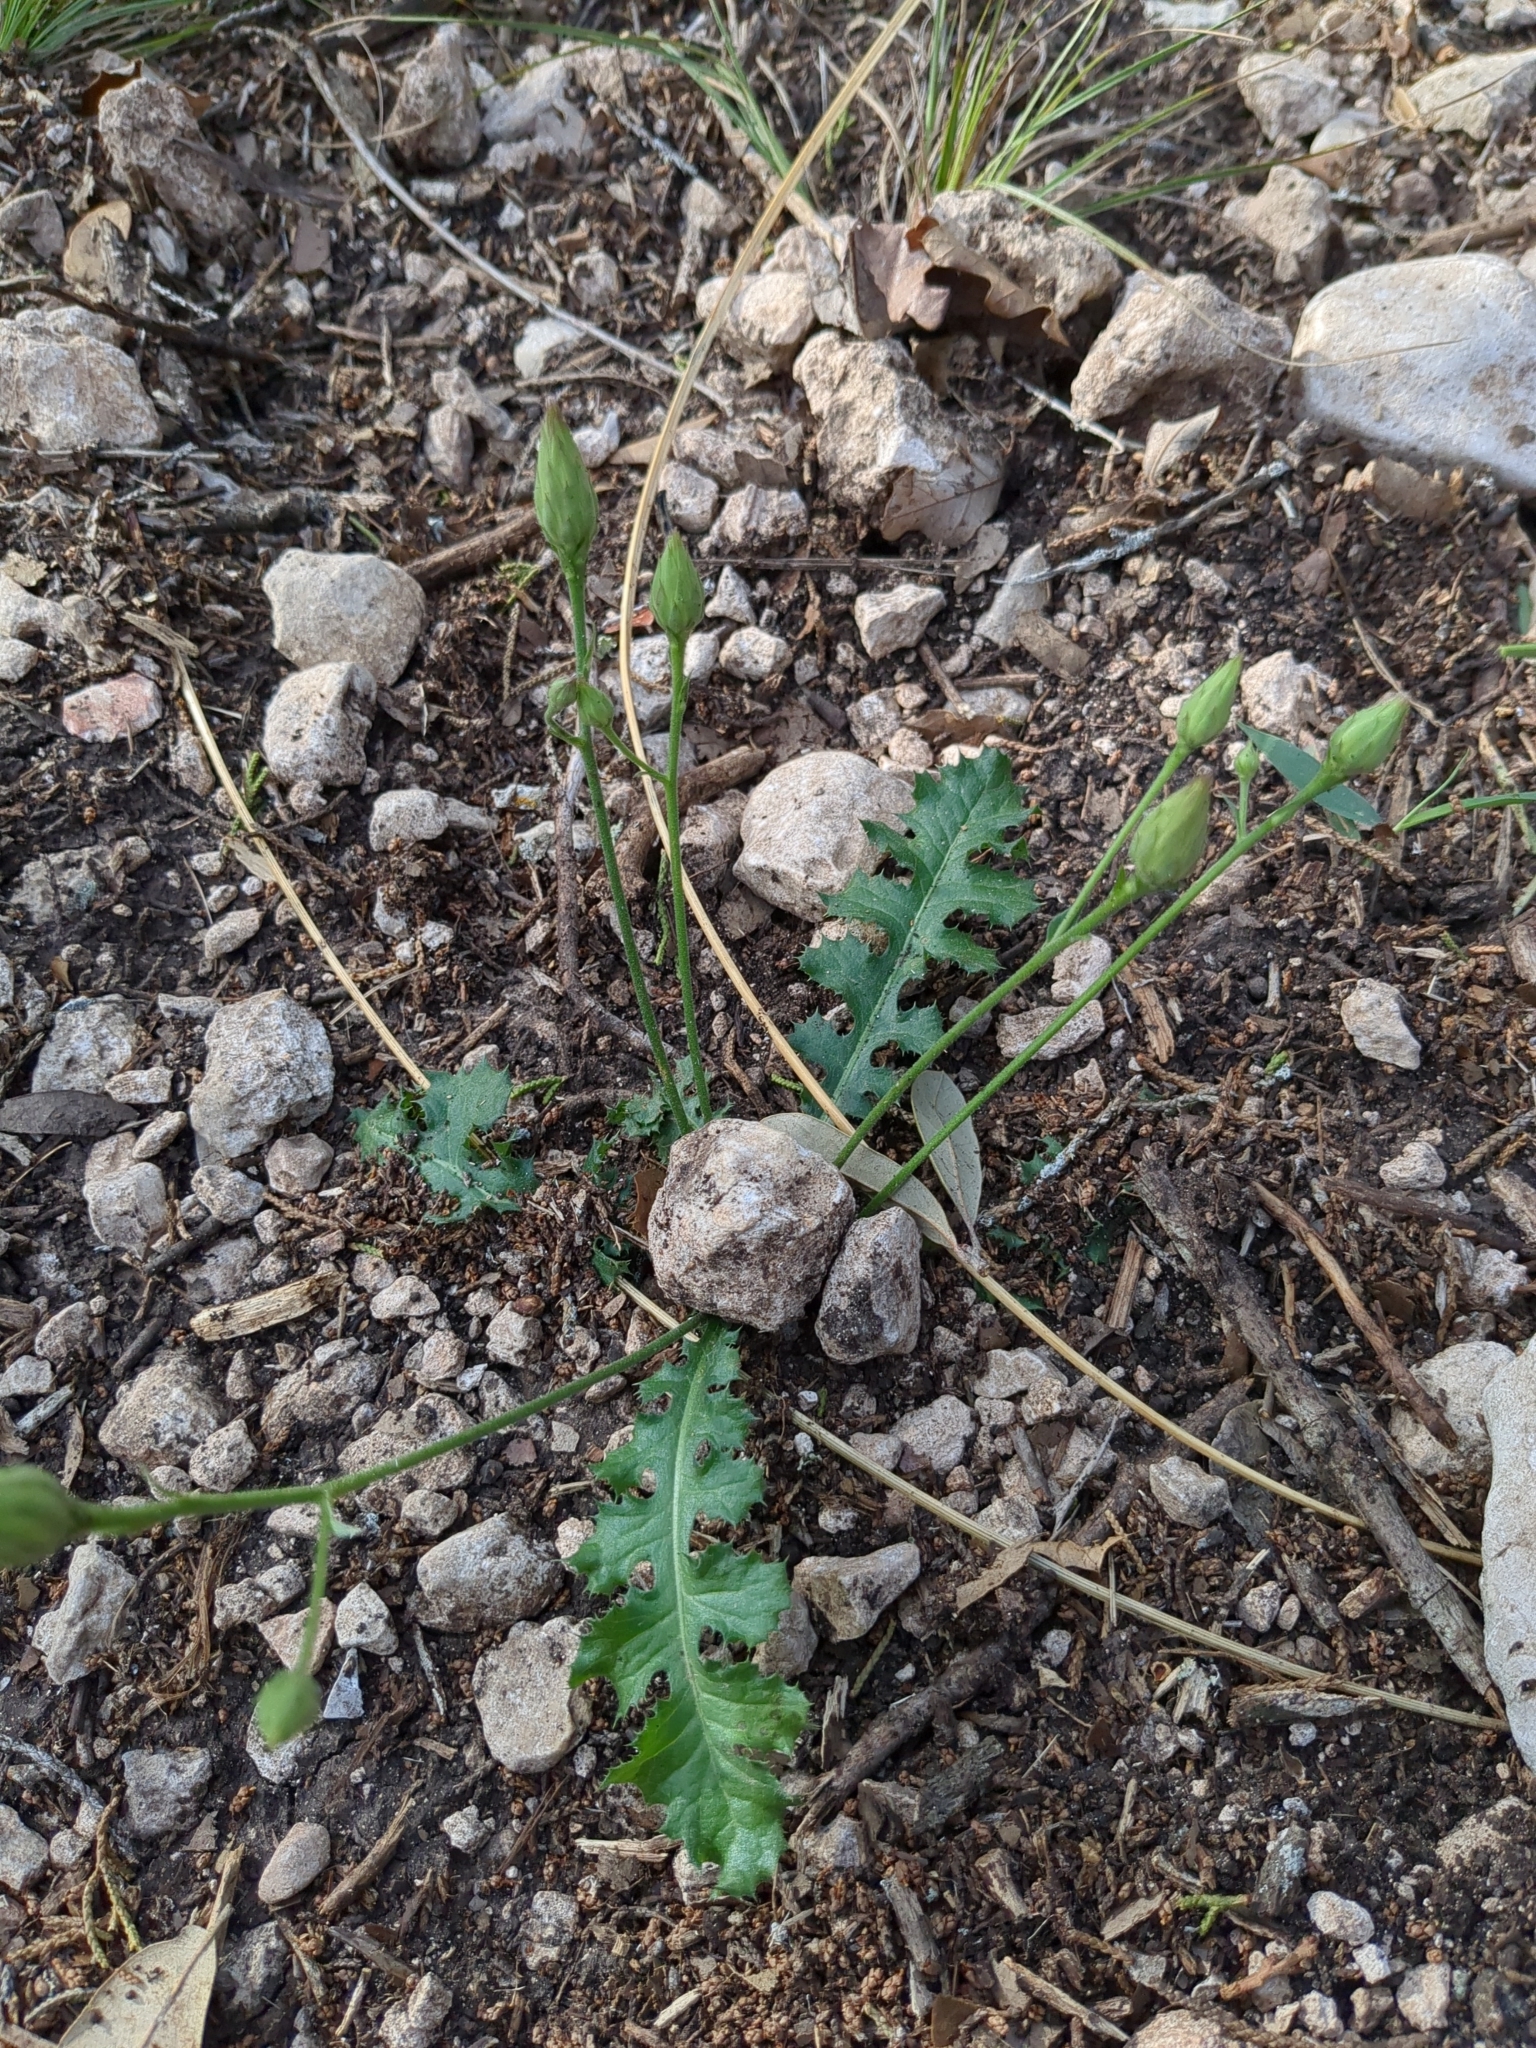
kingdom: Plantae
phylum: Tracheophyta
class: Magnoliopsida
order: Asterales
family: Asteraceae
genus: Acourtia
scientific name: Acourtia runcinata
